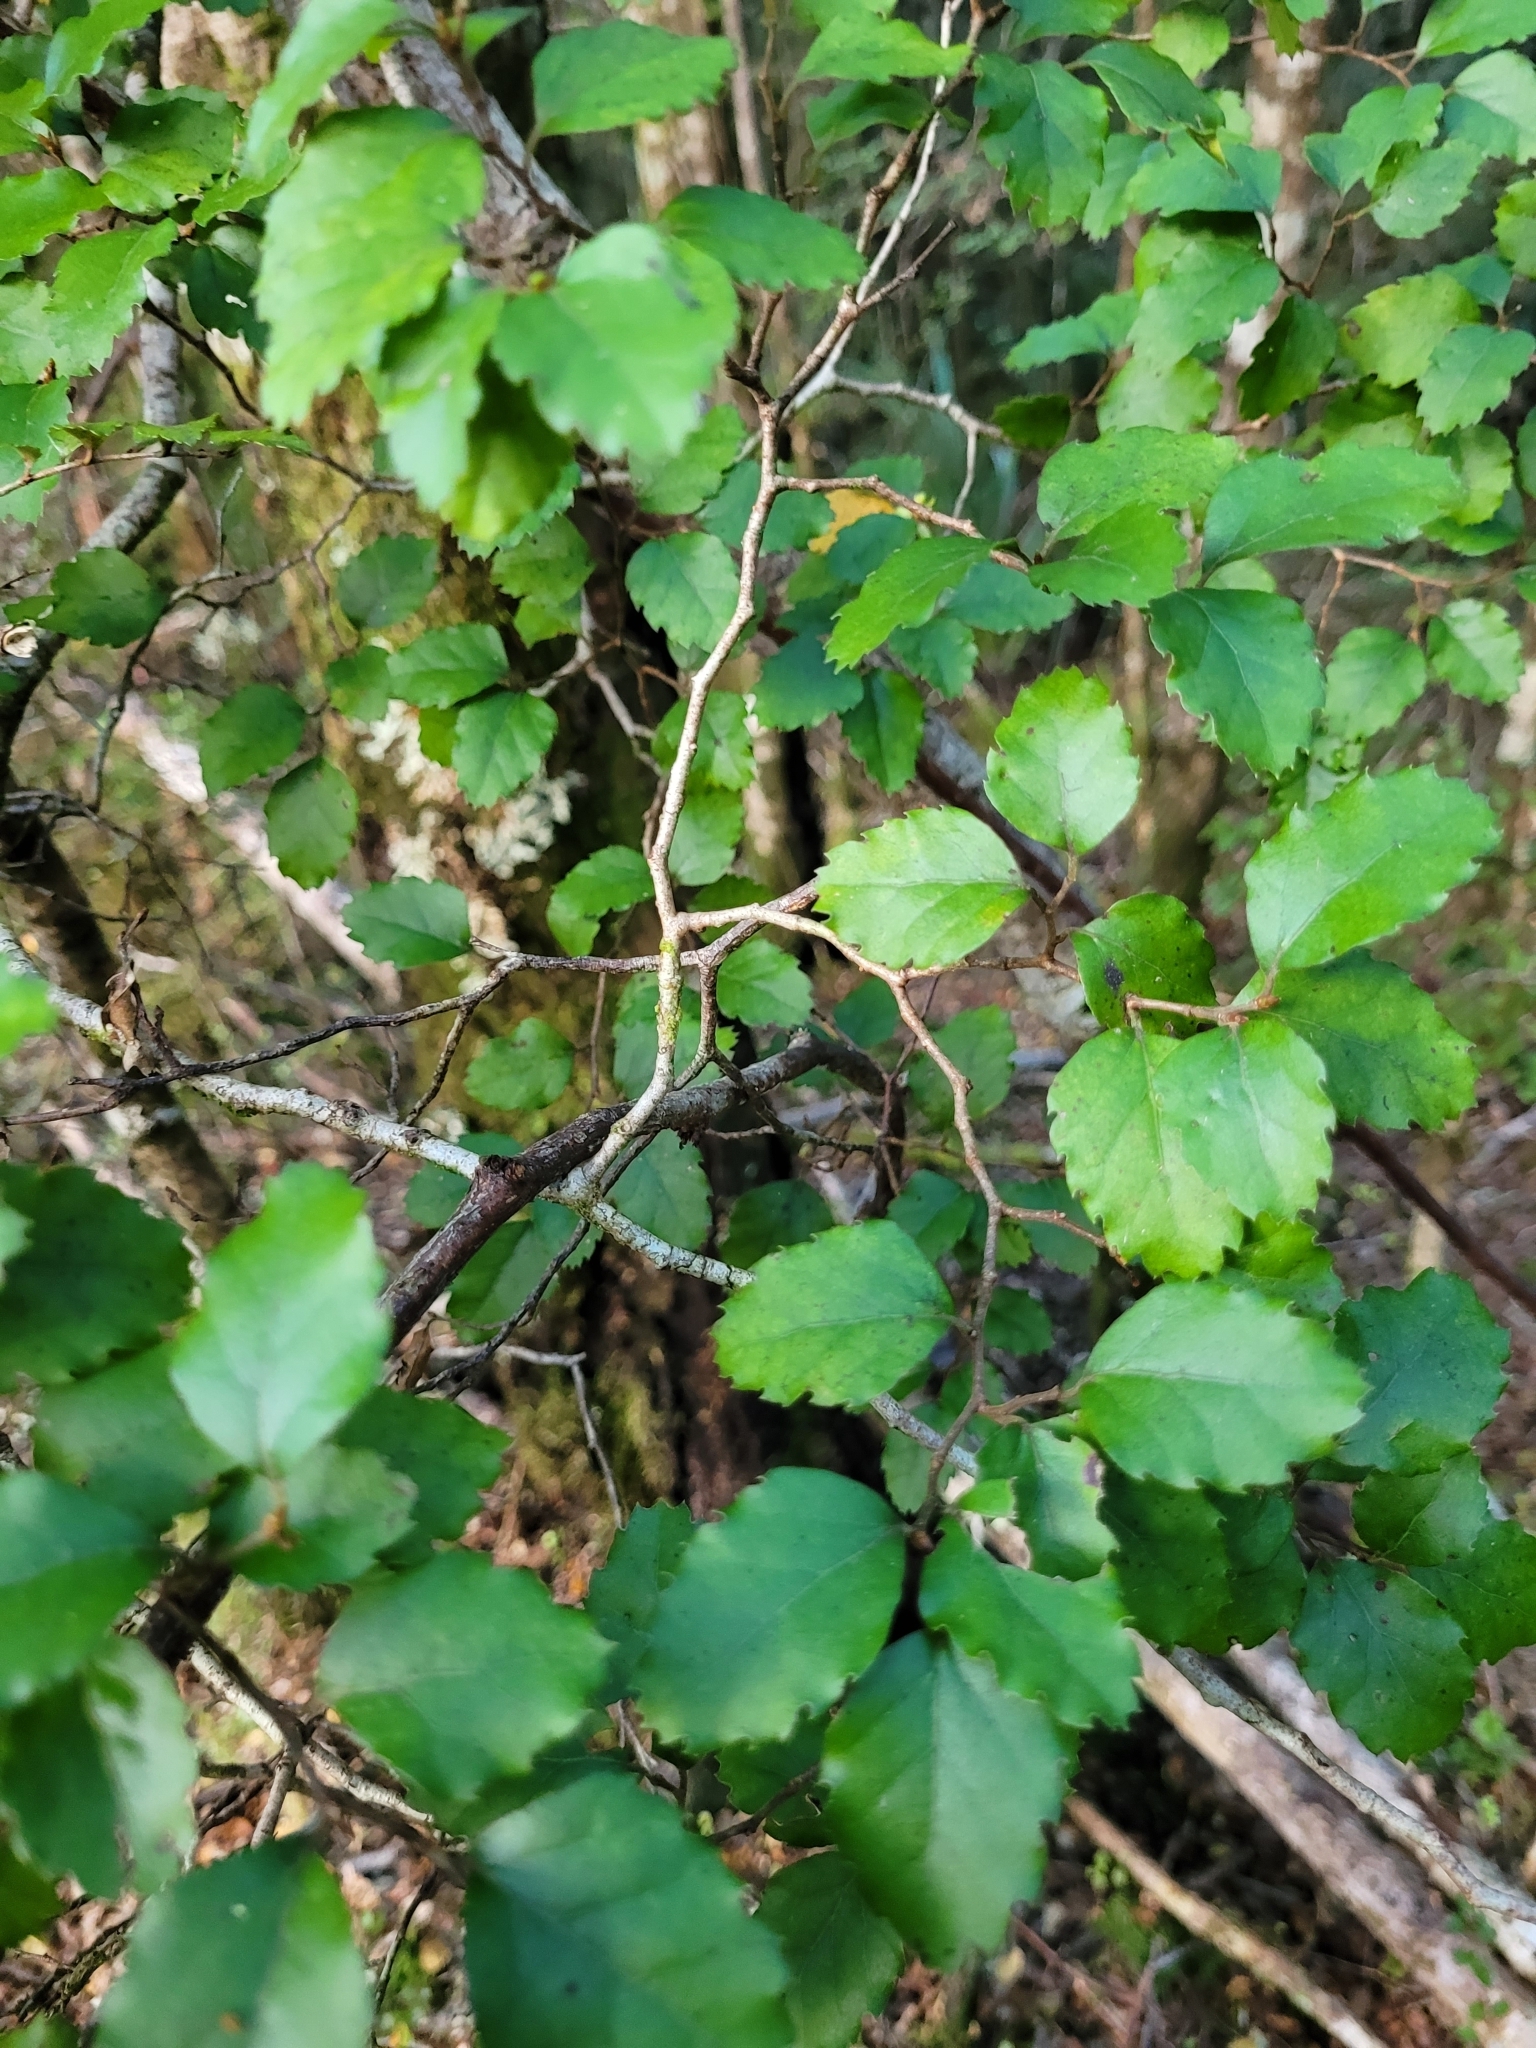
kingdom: Plantae
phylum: Tracheophyta
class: Magnoliopsida
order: Fagales
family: Nothofagaceae
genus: Nothofagus
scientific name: Nothofagus truncata
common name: Hard beech
